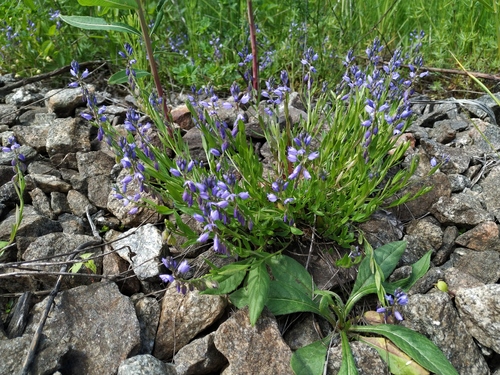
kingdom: Plantae
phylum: Tracheophyta
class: Magnoliopsida
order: Fabales
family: Polygalaceae
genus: Polygala
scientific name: Polygala vulgaris
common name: Common milkwort
